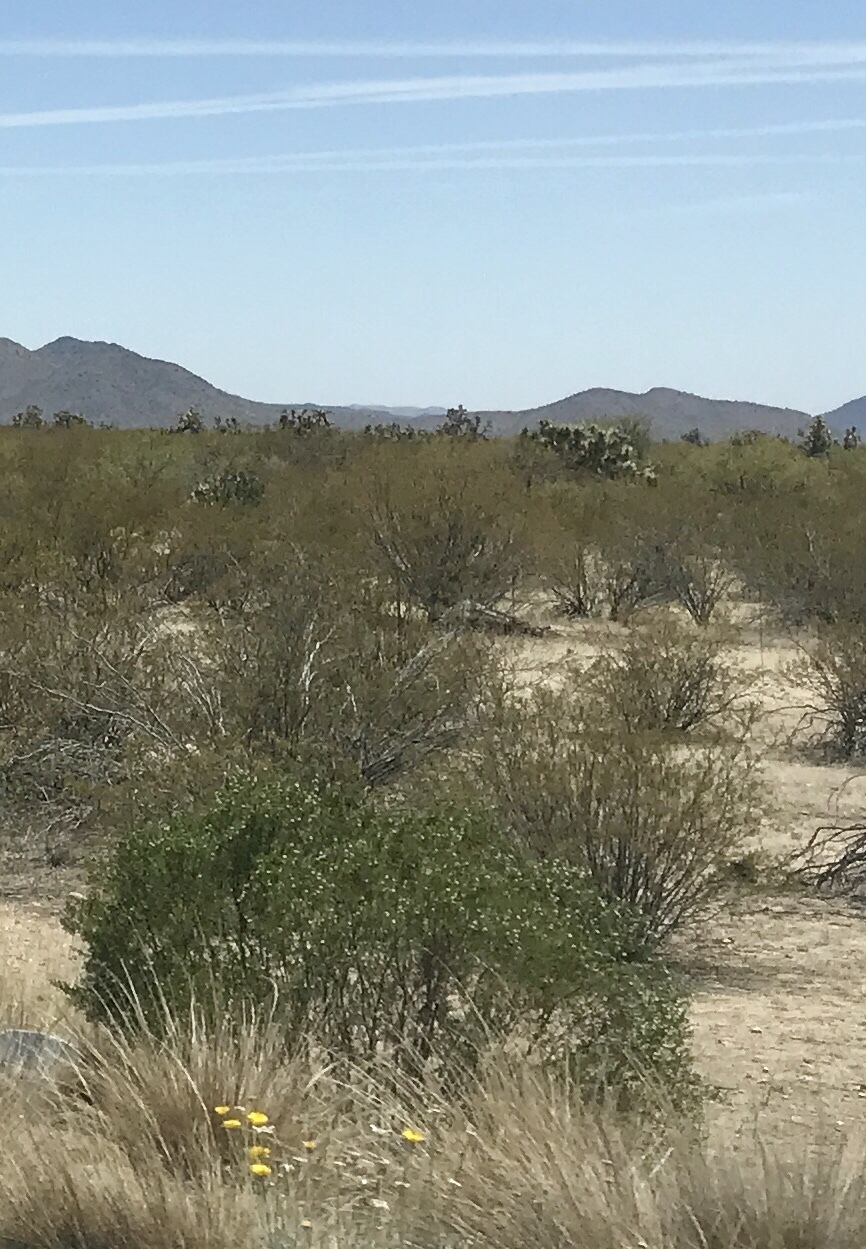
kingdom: Plantae
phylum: Tracheophyta
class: Magnoliopsida
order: Zygophyllales
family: Zygophyllaceae
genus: Larrea
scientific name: Larrea tridentata
